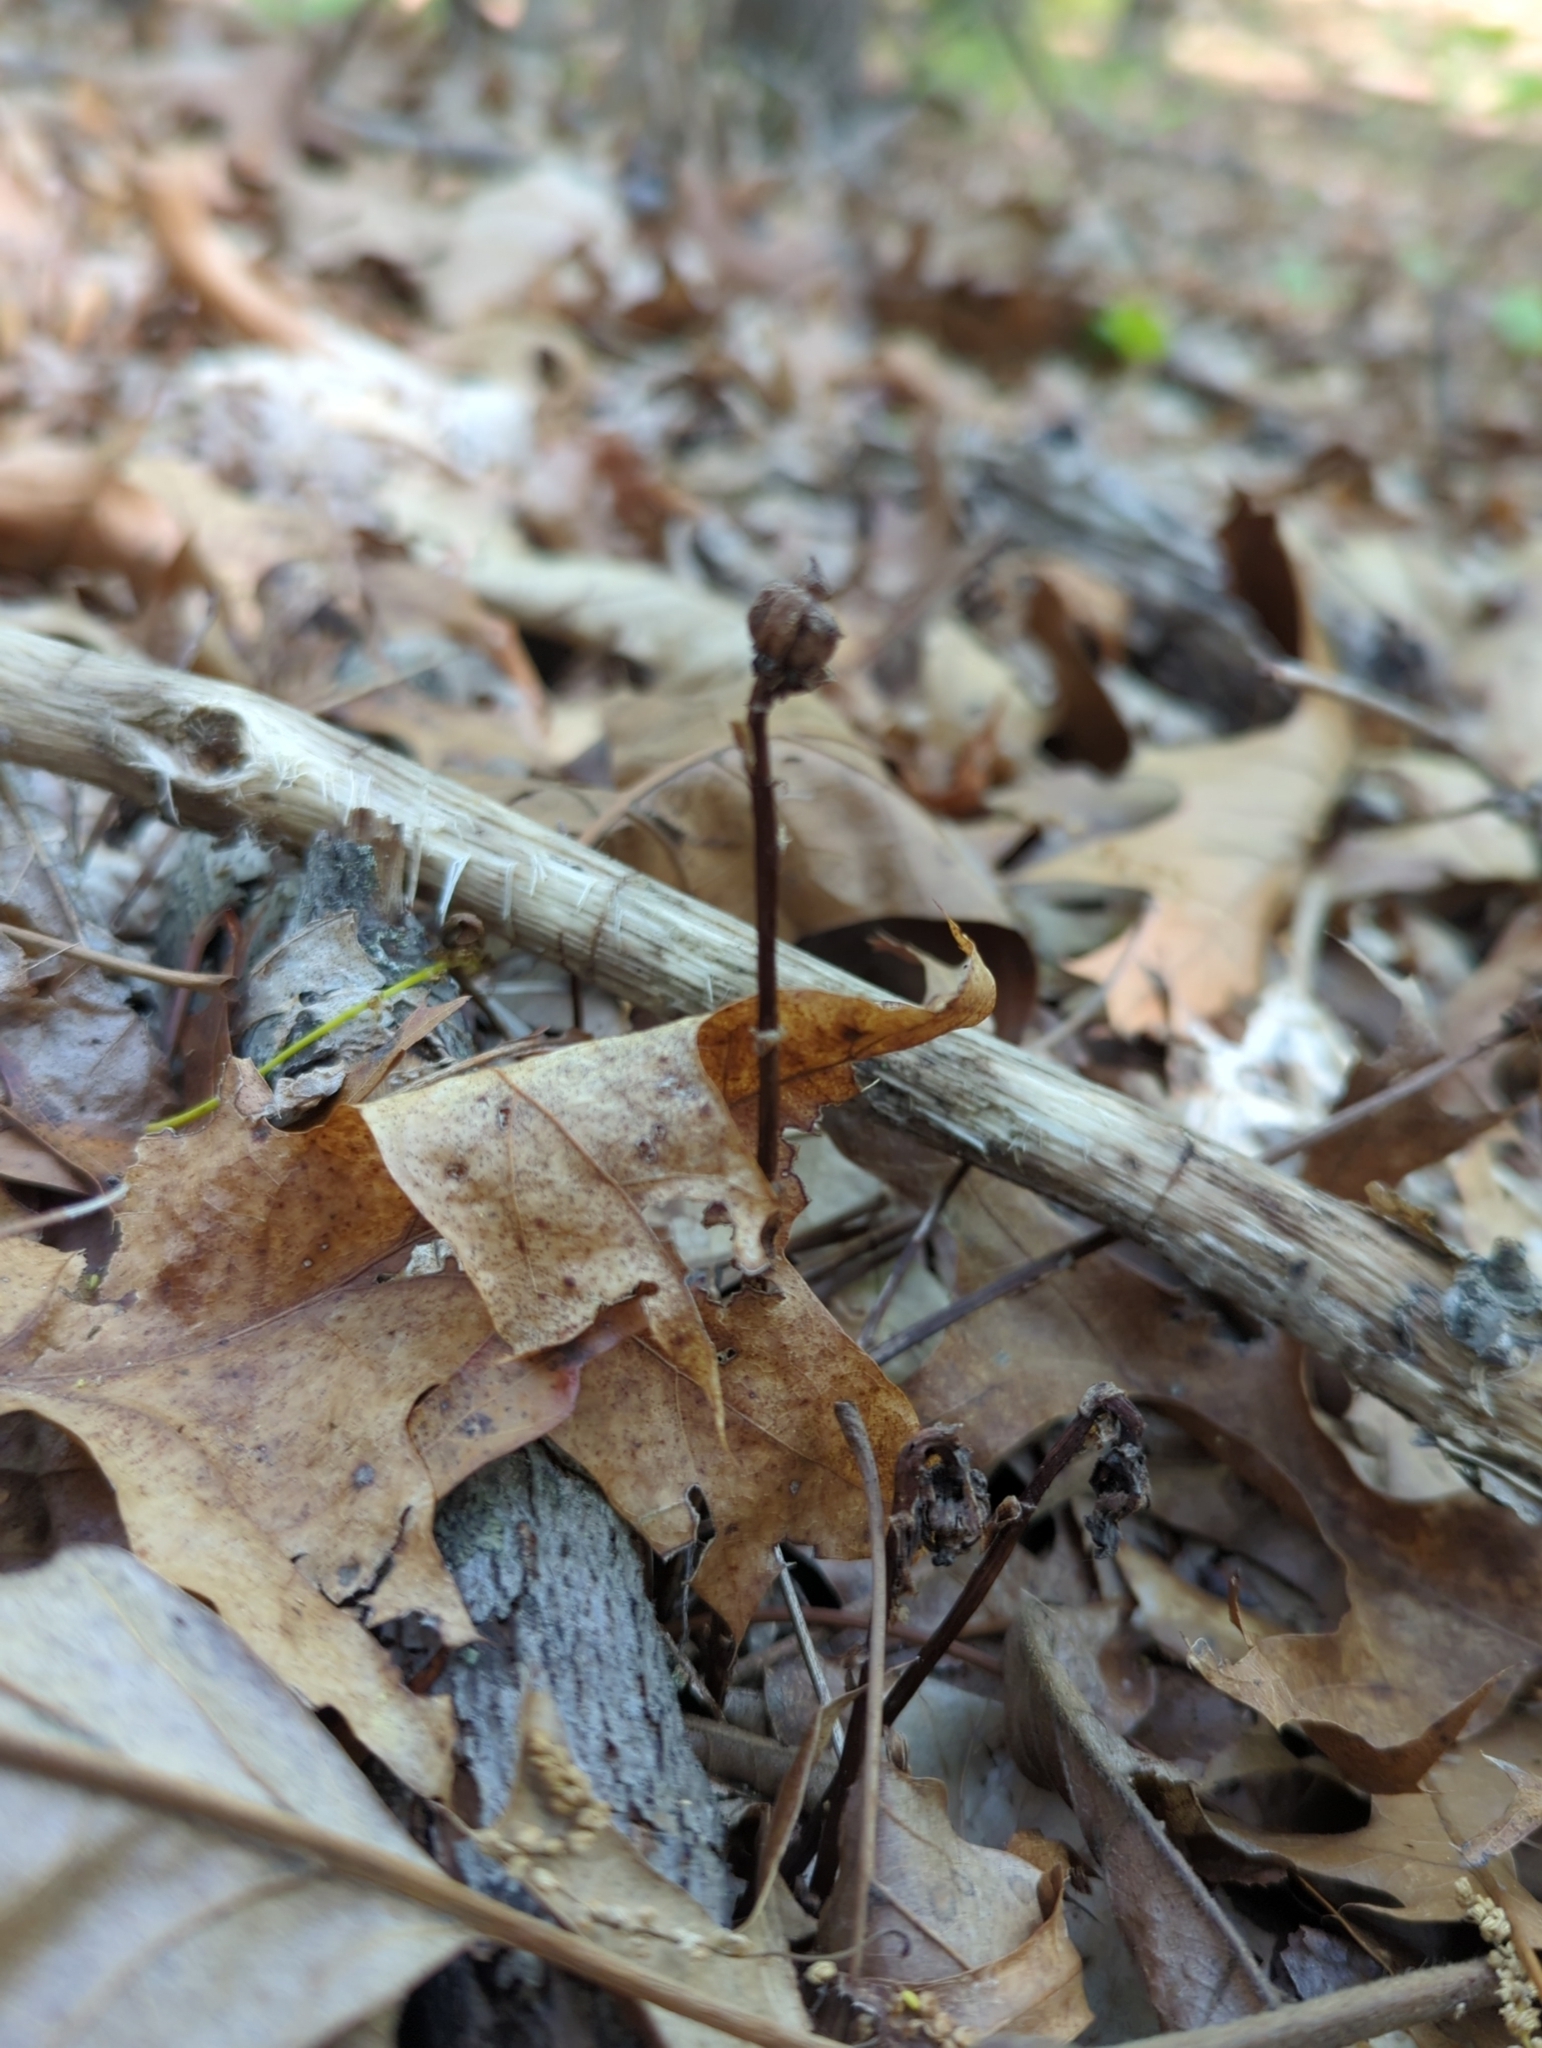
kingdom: Plantae
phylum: Tracheophyta
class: Magnoliopsida
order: Ericales
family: Ericaceae
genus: Monotropa
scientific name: Monotropa uniflora
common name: Convulsion root
